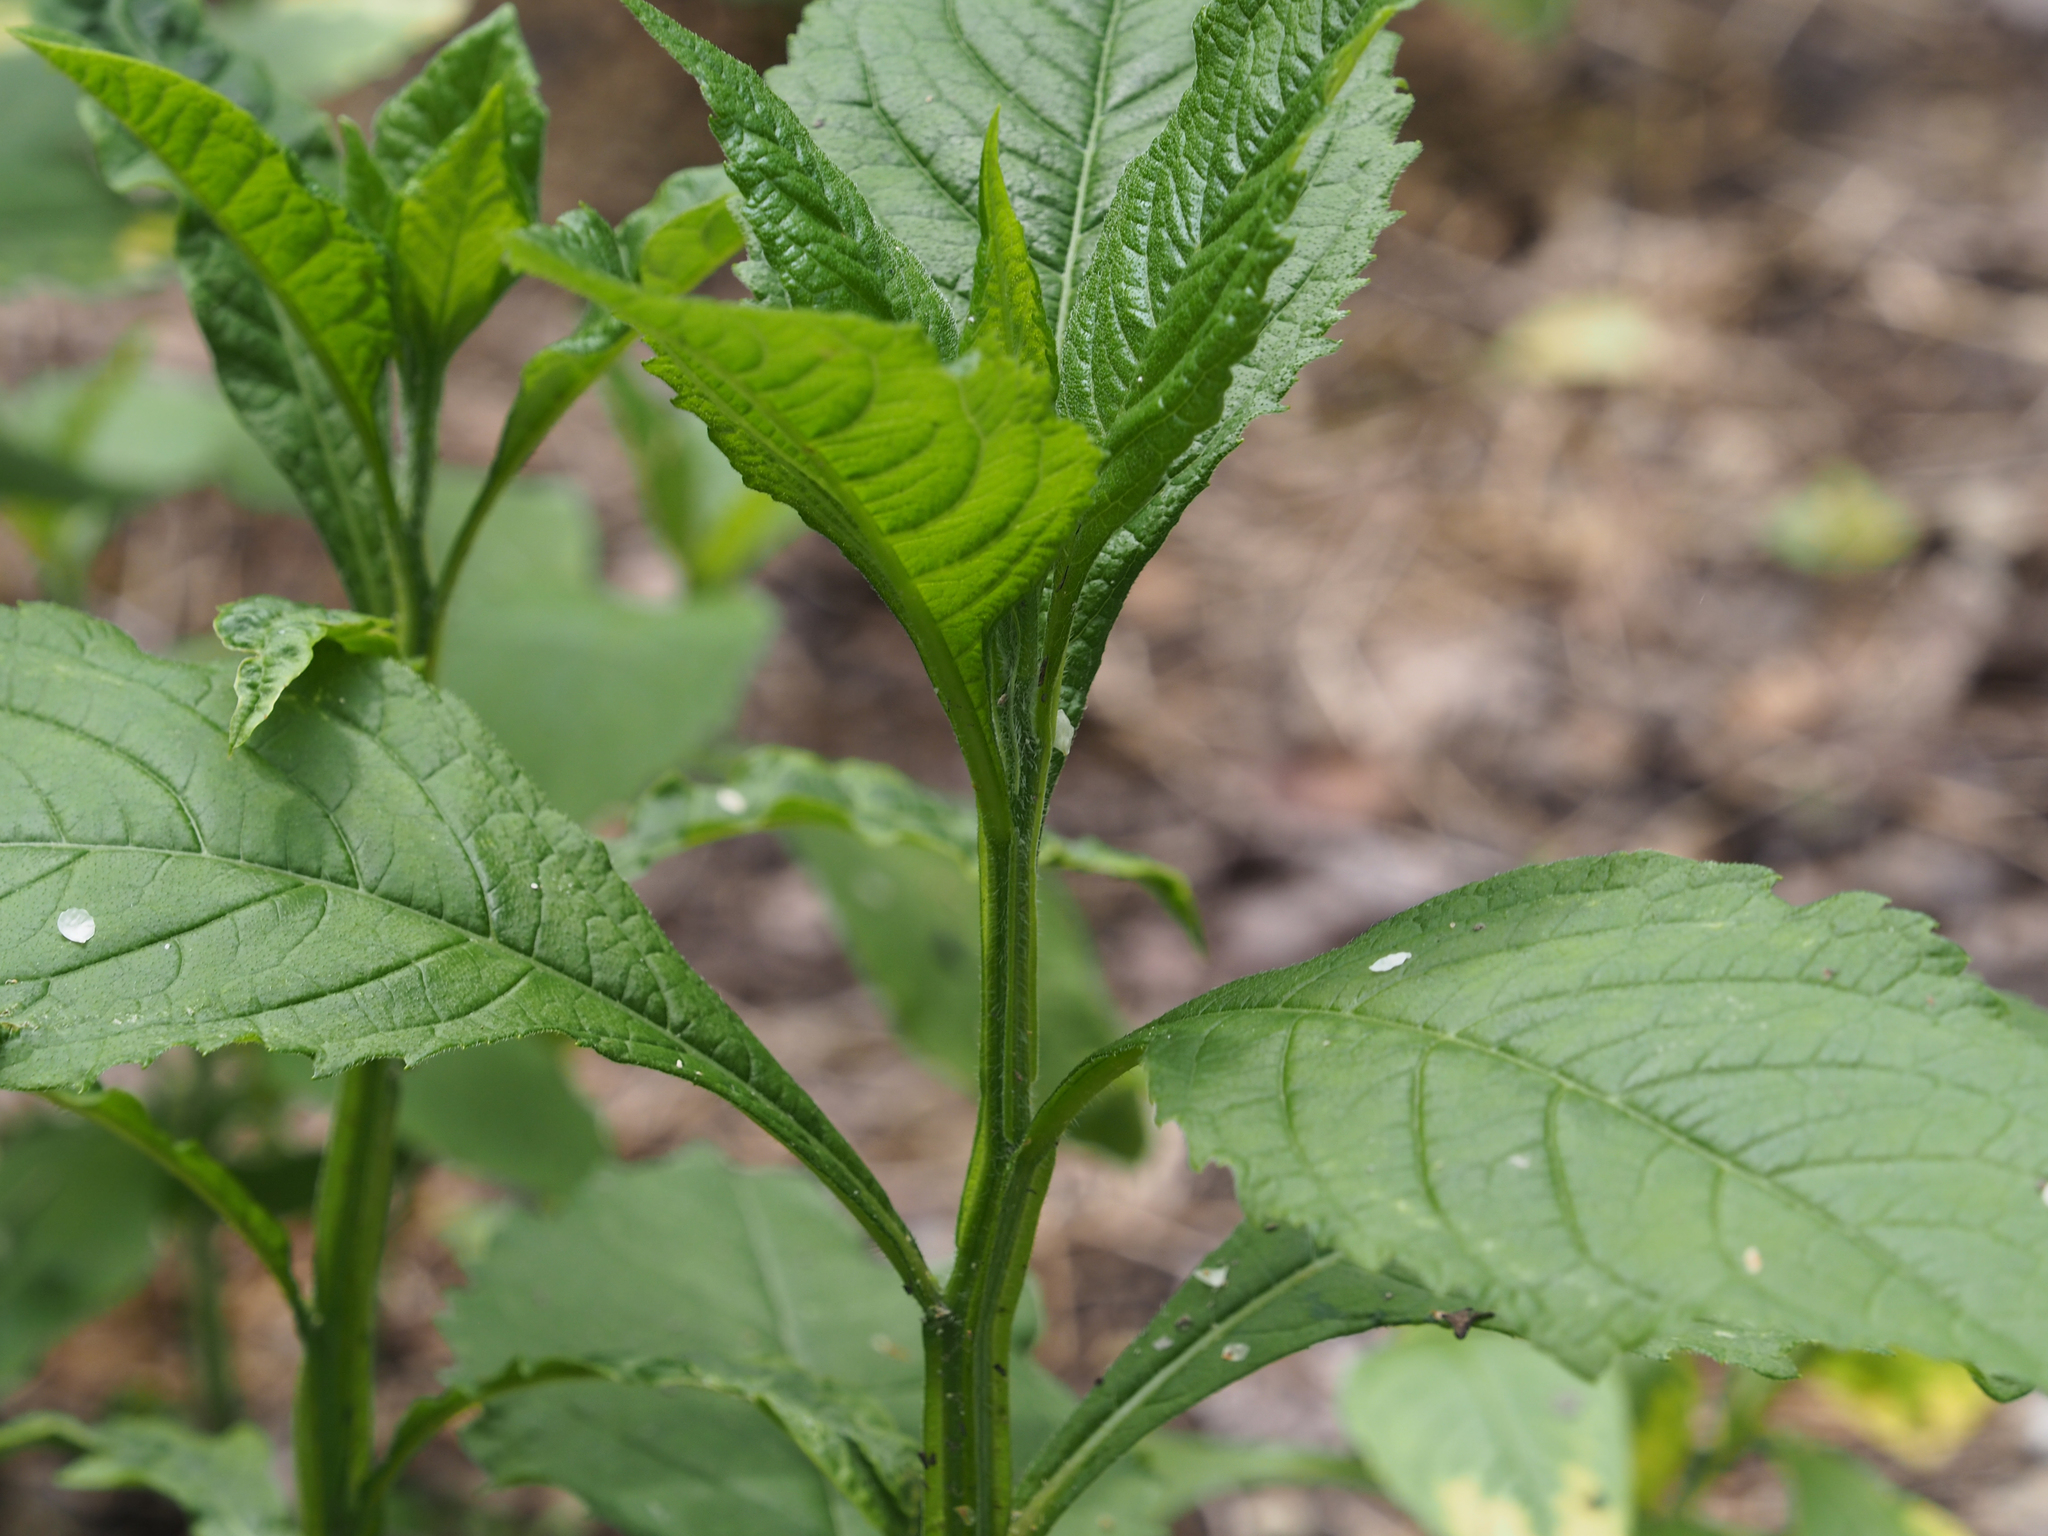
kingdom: Plantae
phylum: Tracheophyta
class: Magnoliopsida
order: Asterales
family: Asteraceae
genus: Verbesina
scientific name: Verbesina alternifolia
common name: Wingstem
